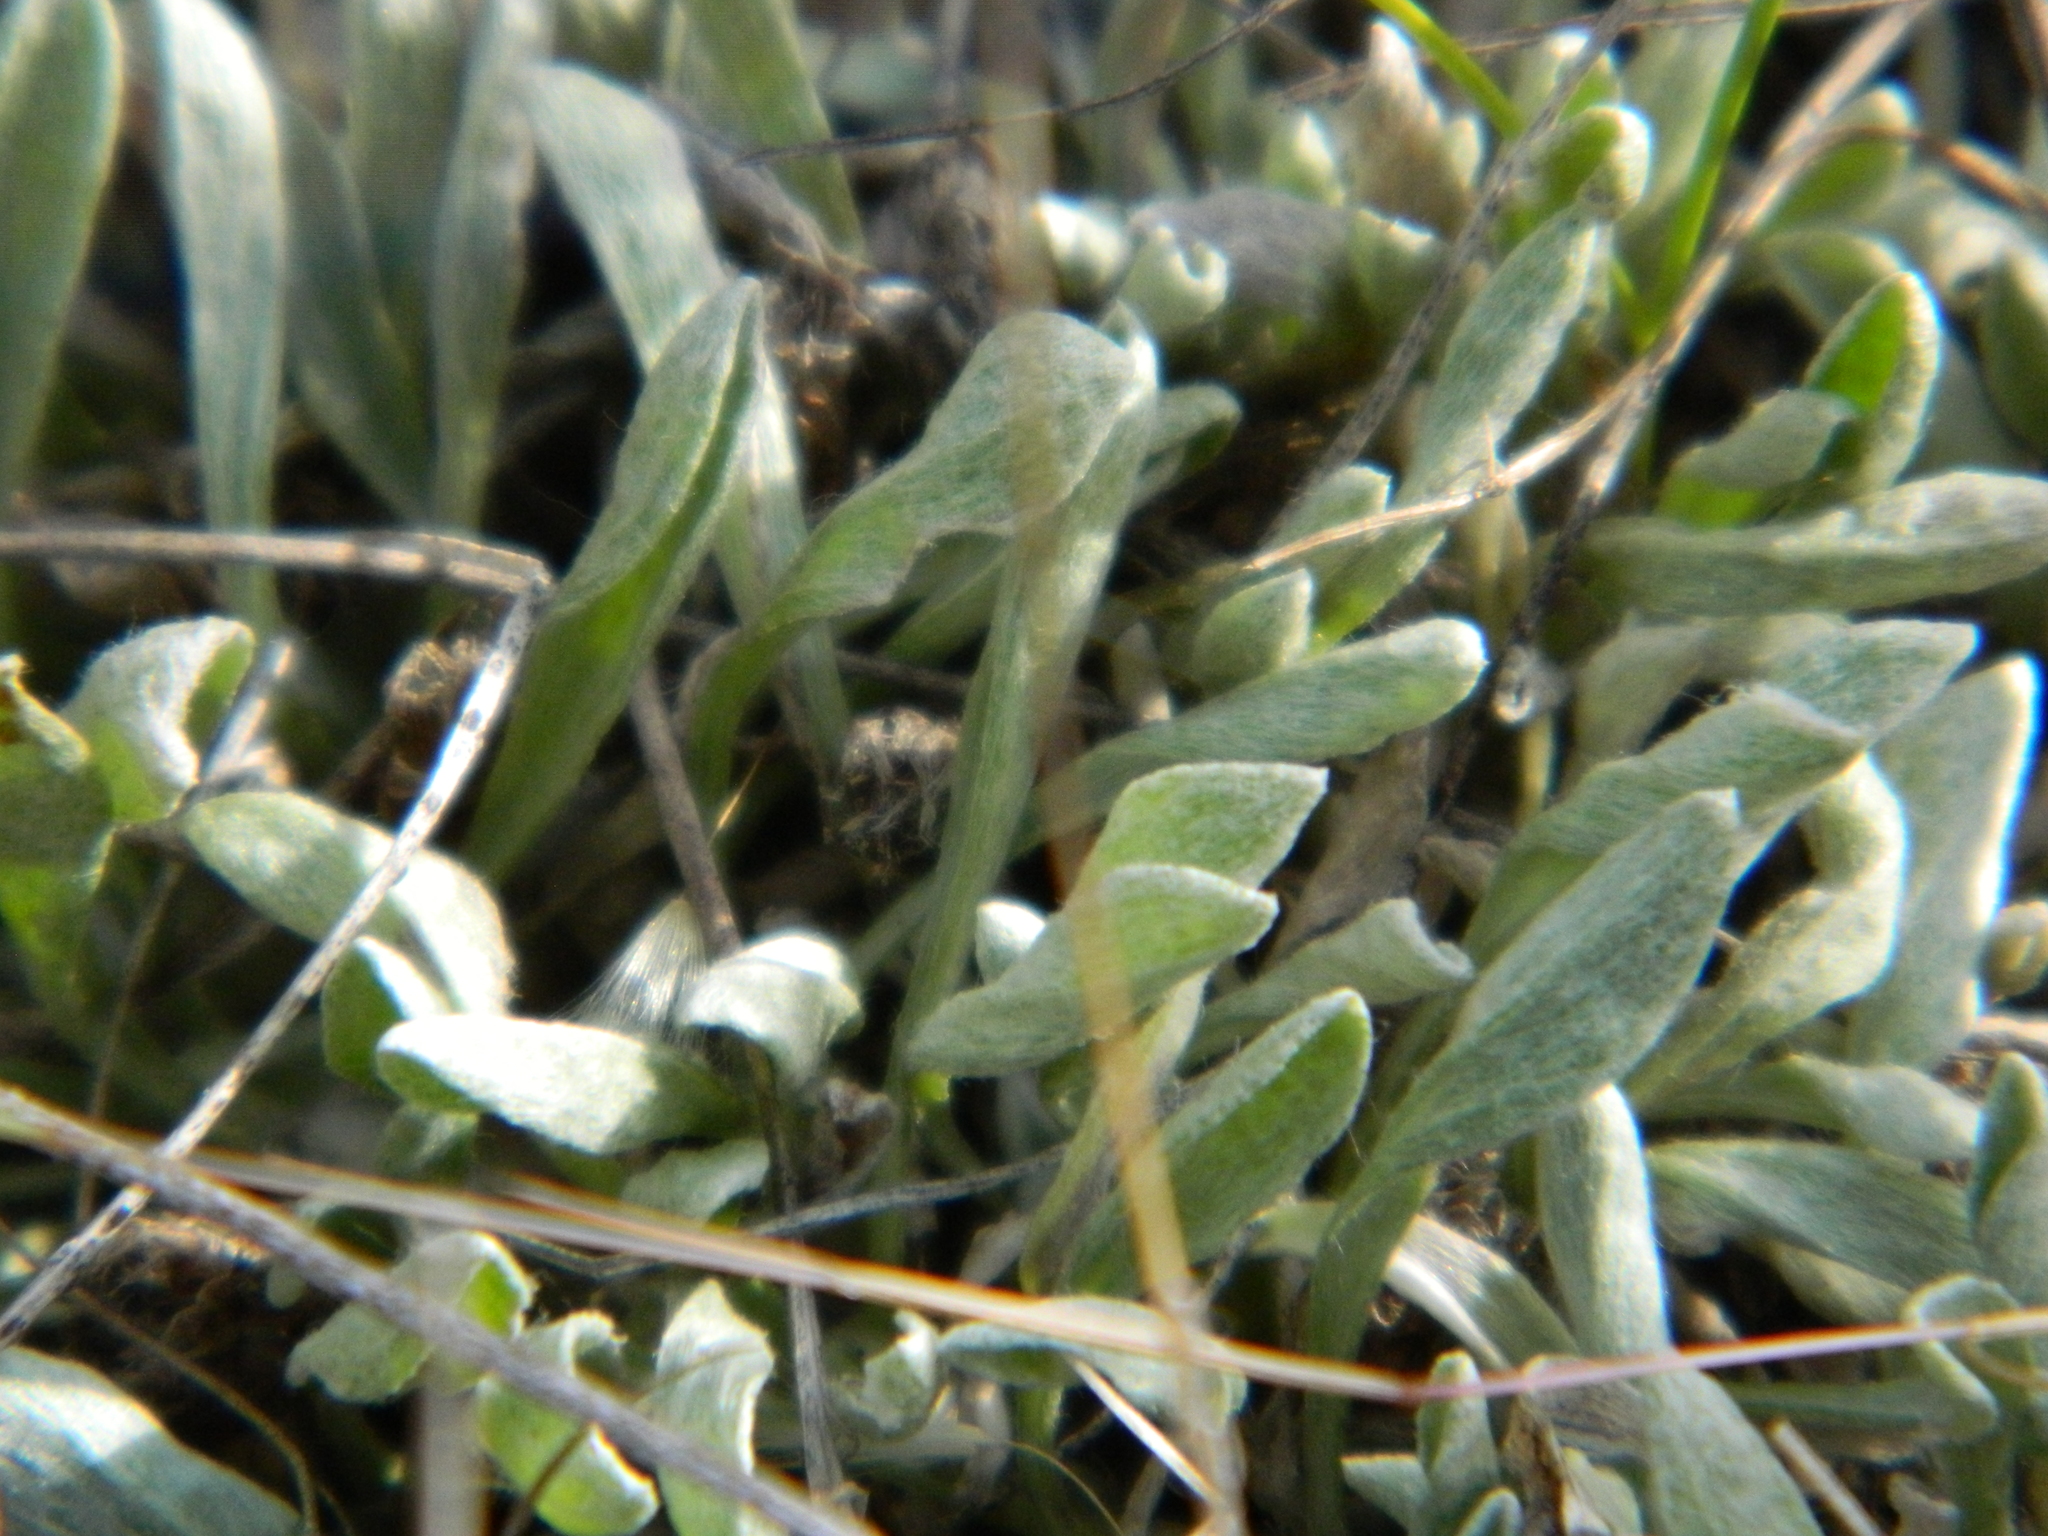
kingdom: Plantae
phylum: Tracheophyta
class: Magnoliopsida
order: Asterales
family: Asteraceae
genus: Antennaria
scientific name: Antennaria dimorpha
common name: Cushion pussytoes
